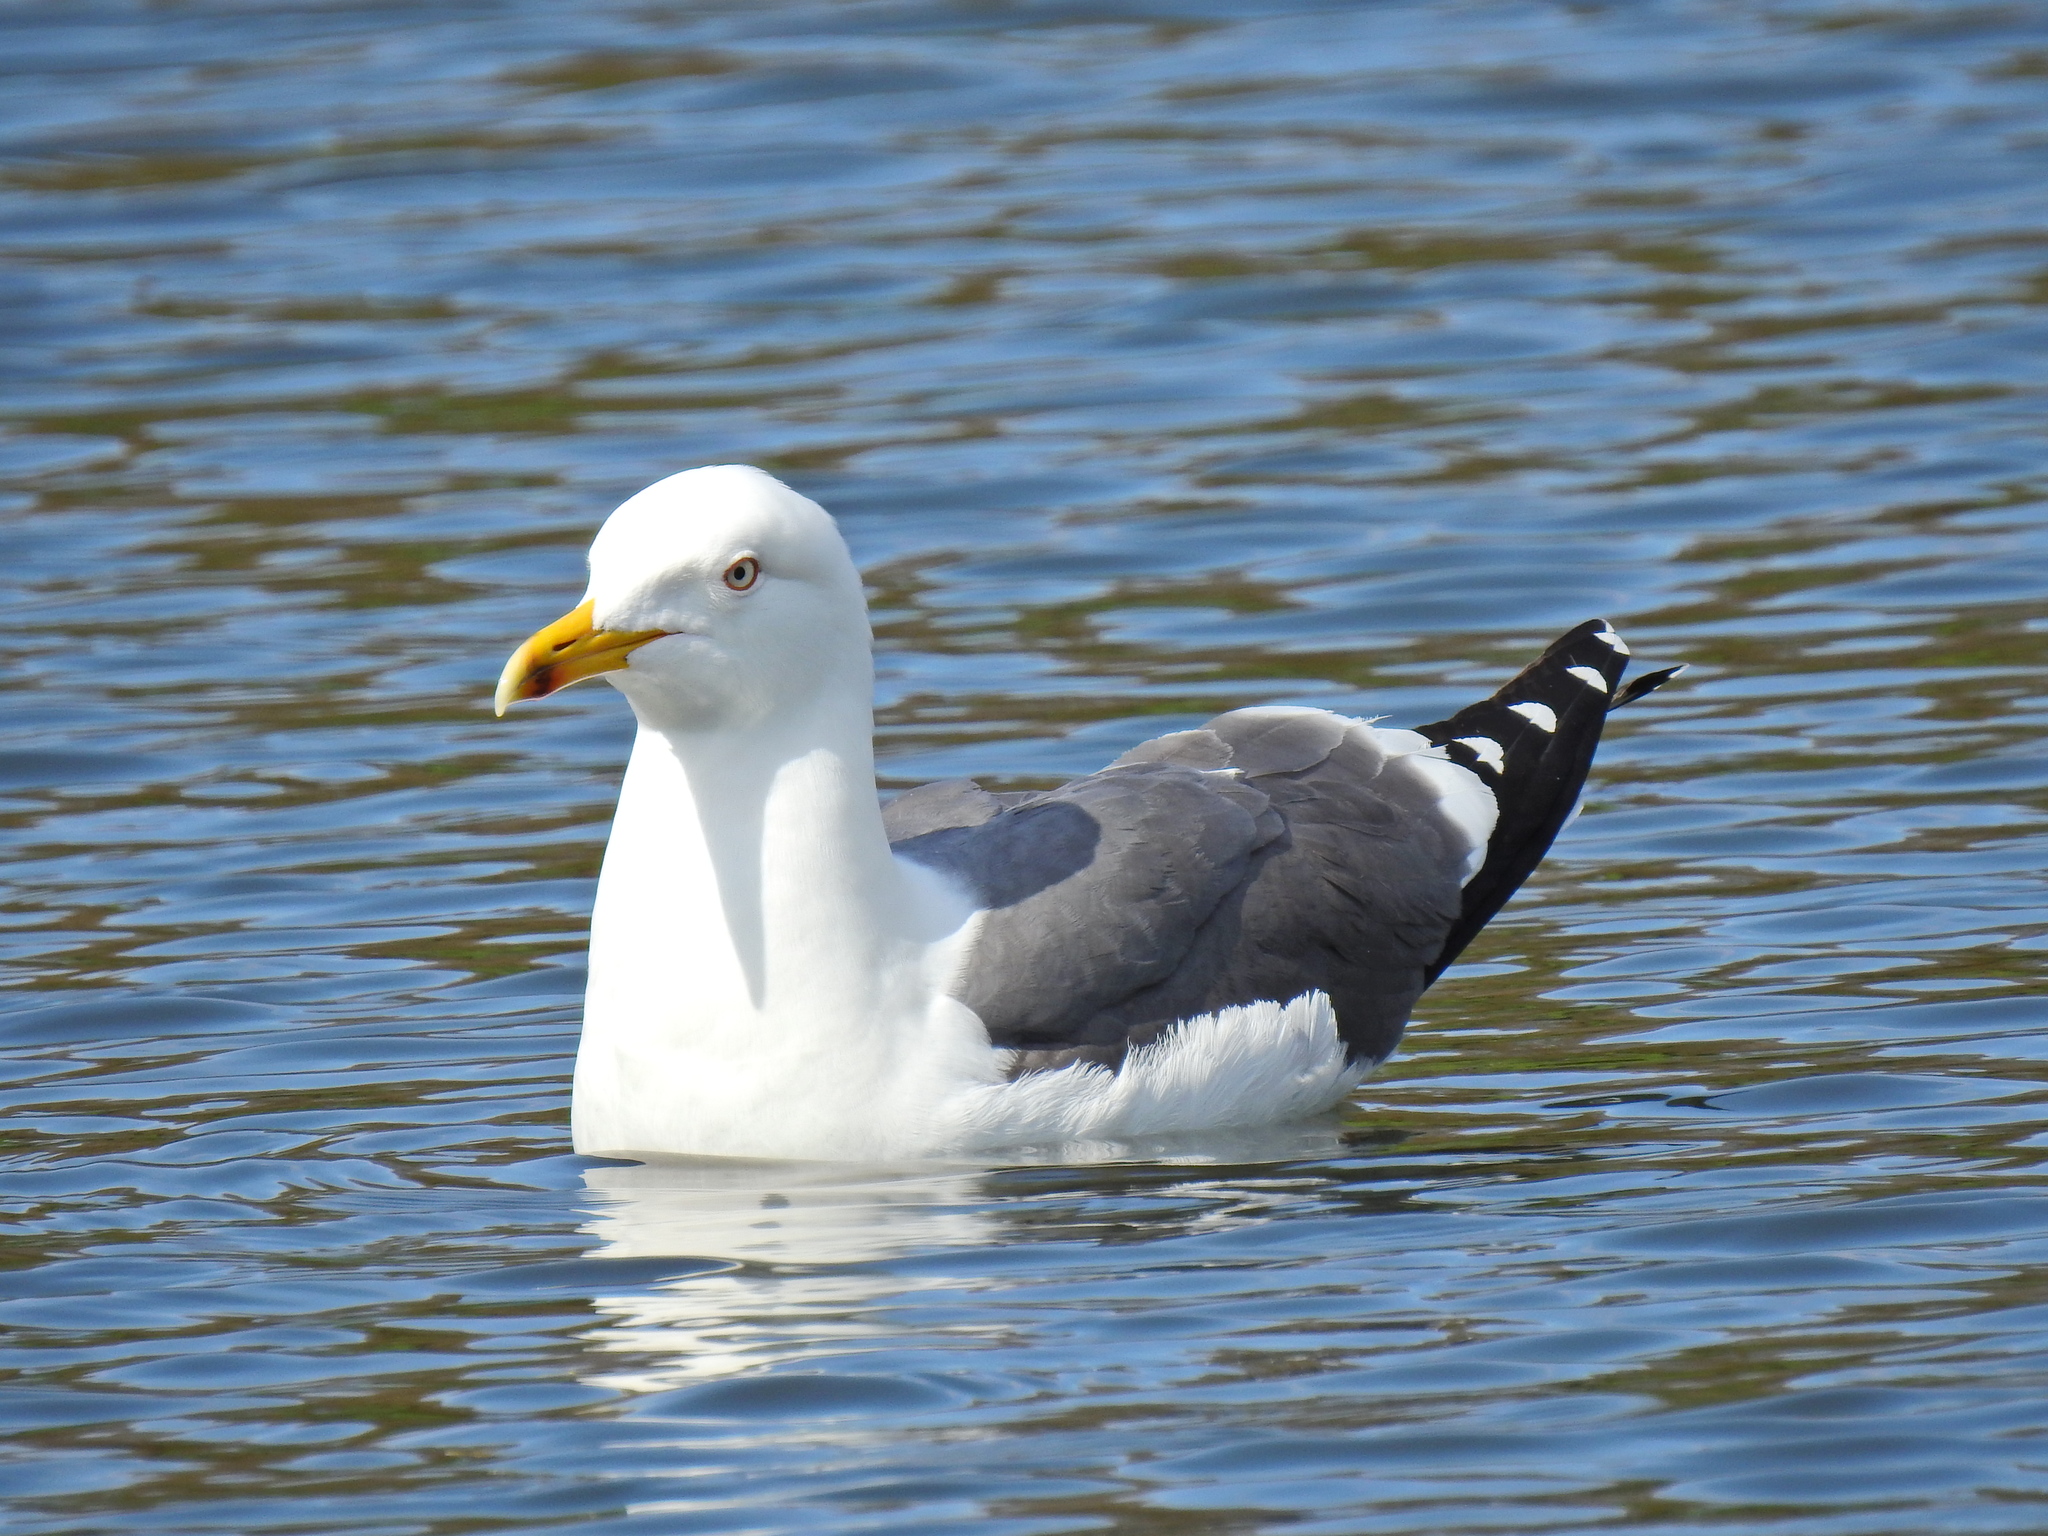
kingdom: Animalia
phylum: Chordata
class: Aves
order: Charadriiformes
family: Laridae
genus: Larus
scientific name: Larus fuscus
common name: Lesser black-backed gull
